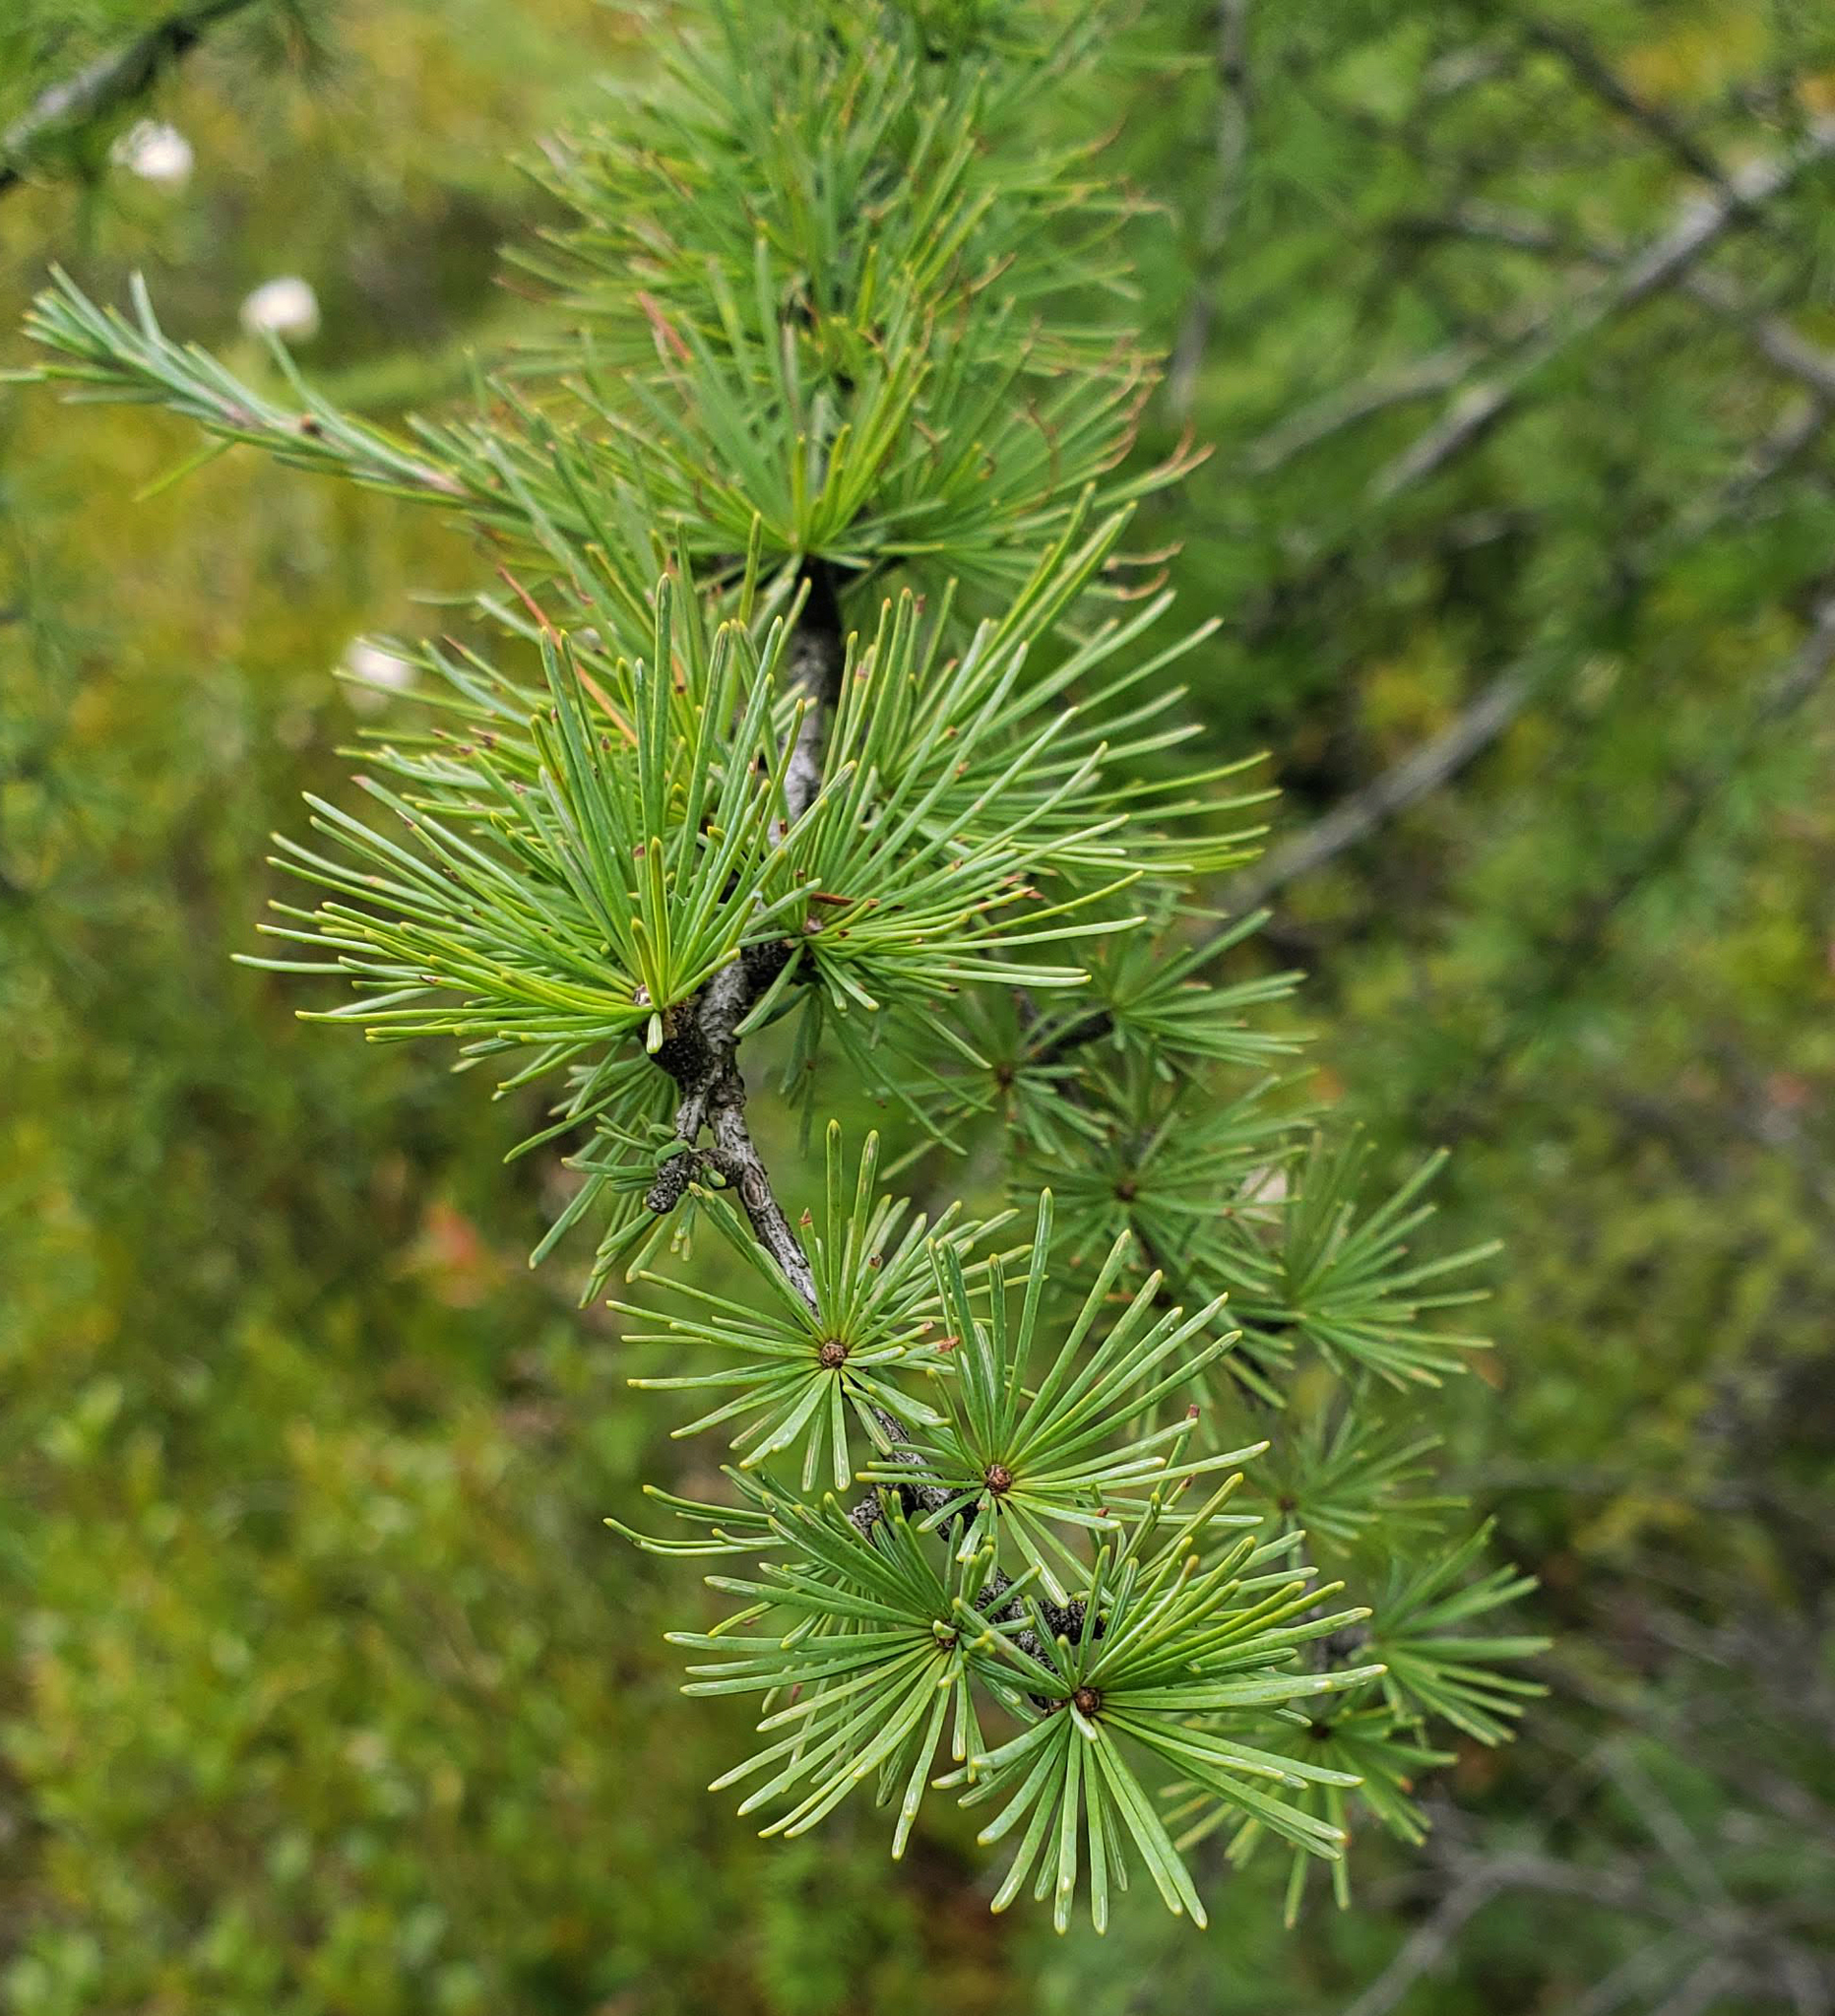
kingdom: Plantae
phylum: Tracheophyta
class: Pinopsida
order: Pinales
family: Pinaceae
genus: Larix
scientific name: Larix laricina
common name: American larch
